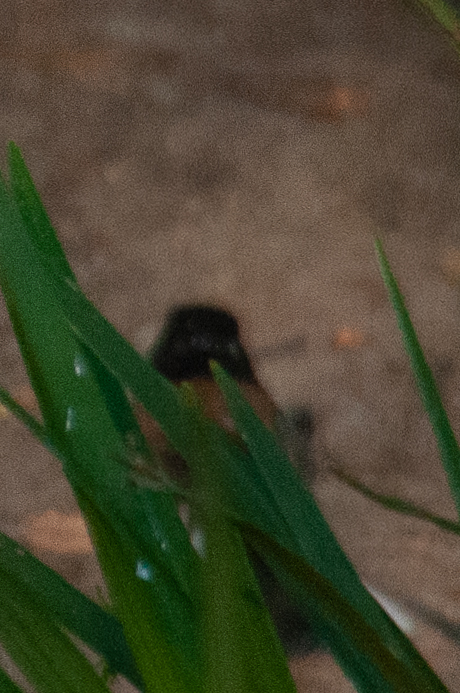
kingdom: Animalia
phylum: Chordata
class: Aves
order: Passeriformes
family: Passerellidae
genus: Junco
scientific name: Junco hyemalis
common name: Dark-eyed junco
